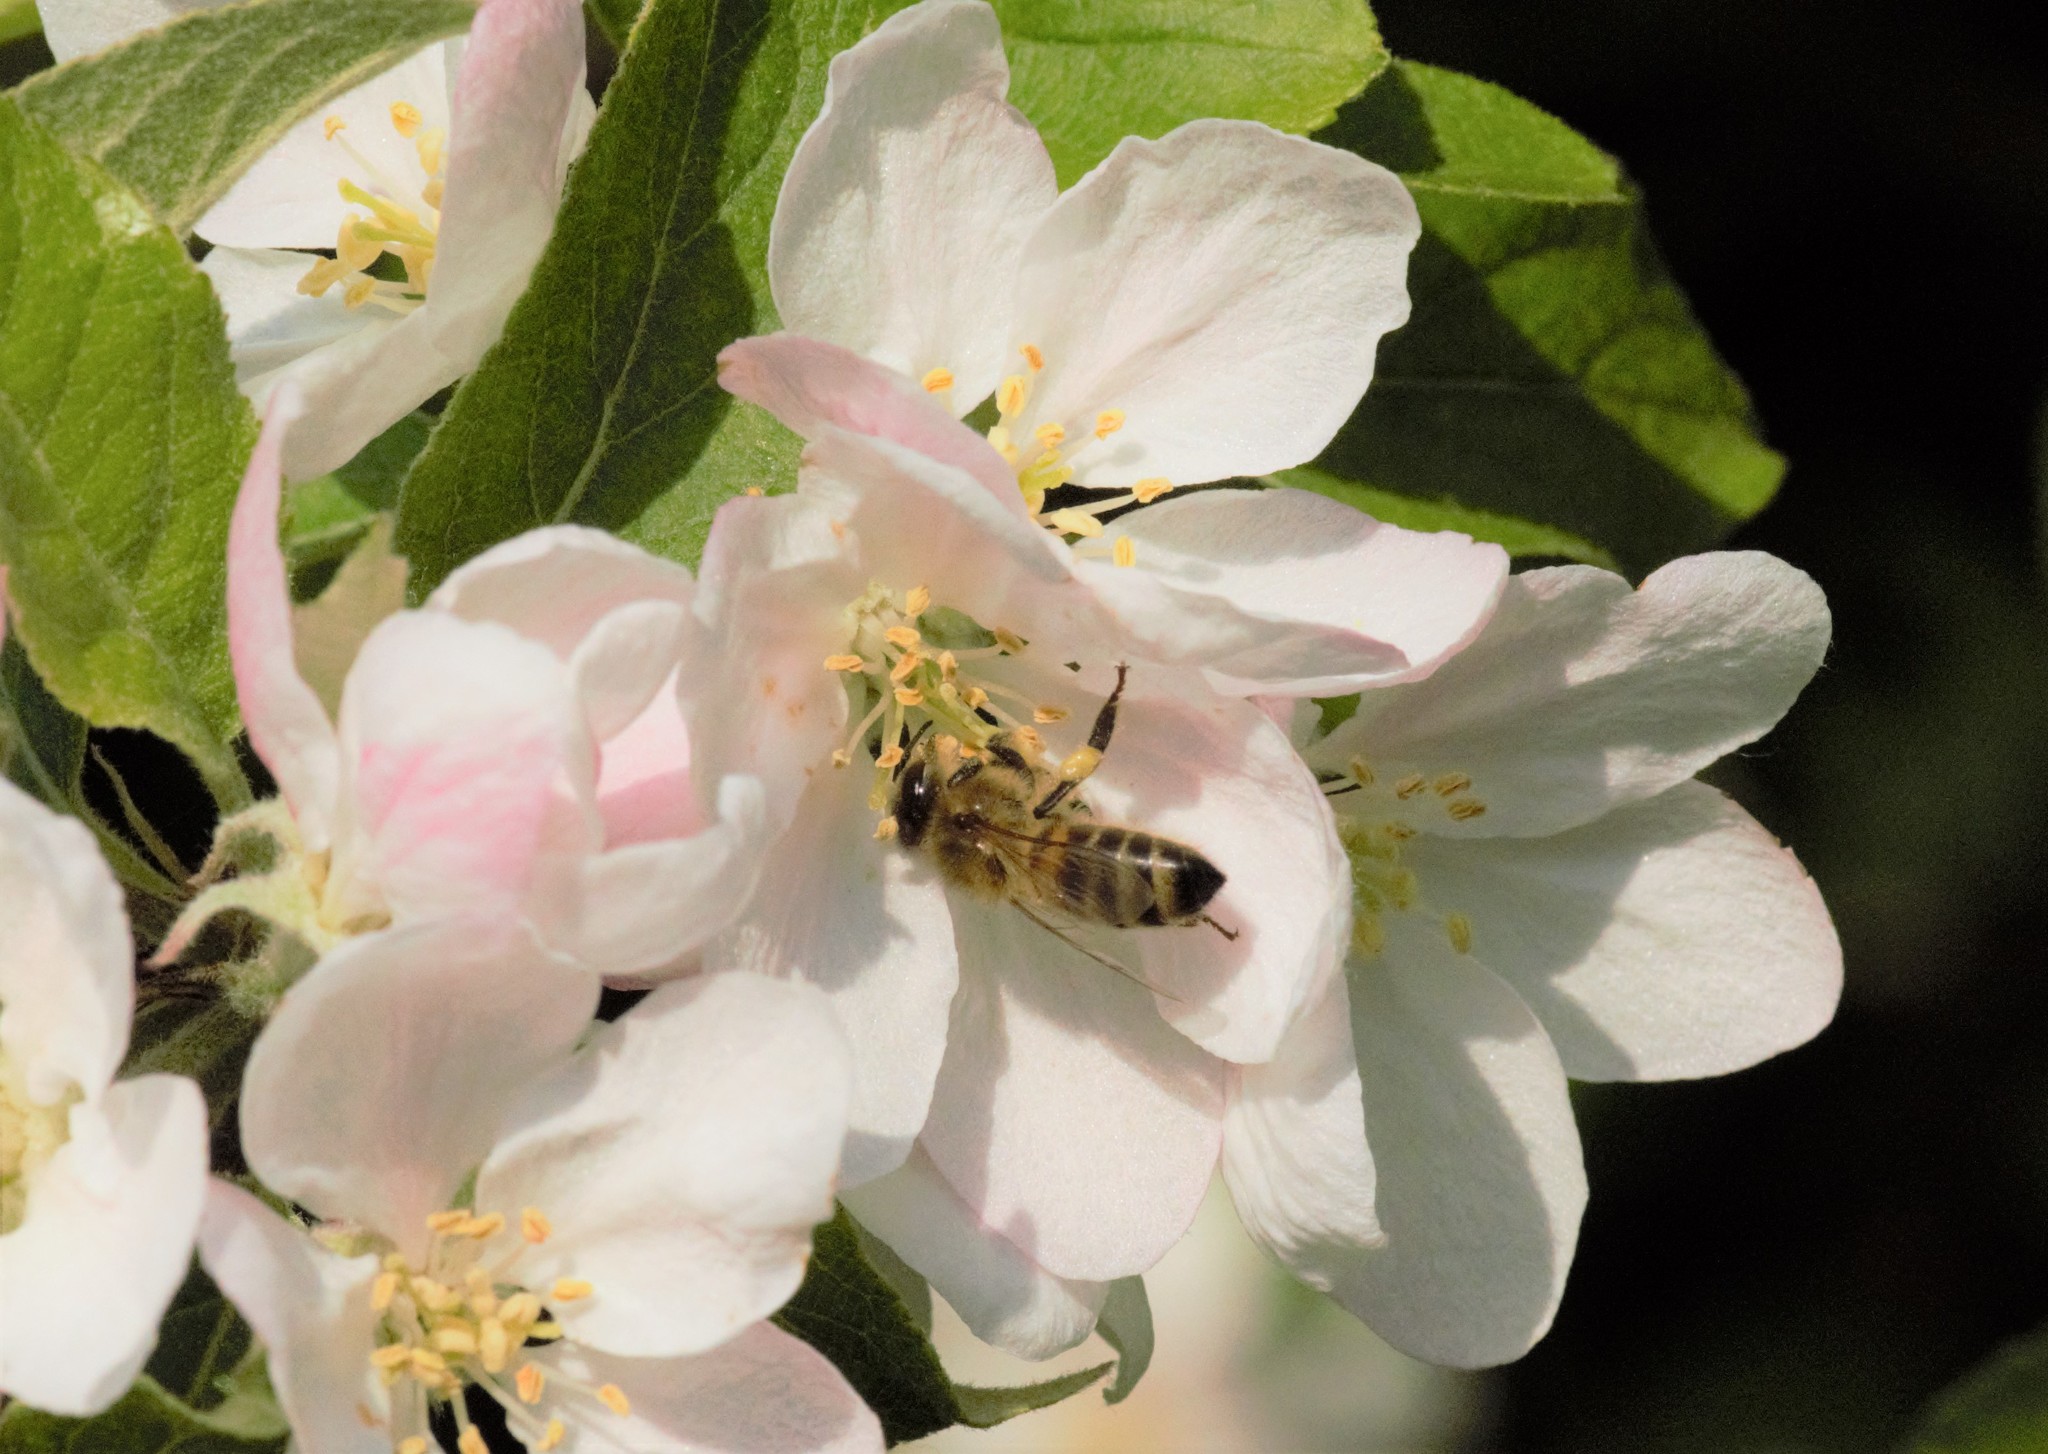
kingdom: Animalia
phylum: Arthropoda
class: Insecta
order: Hymenoptera
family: Apidae
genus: Apis
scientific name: Apis mellifera
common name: Honey bee
